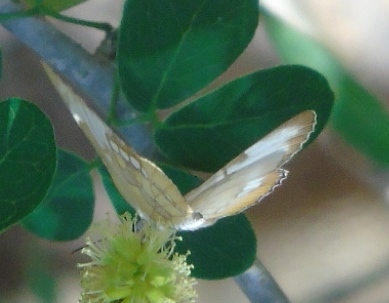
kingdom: Animalia
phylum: Arthropoda
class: Insecta
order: Lepidoptera
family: Nymphalidae
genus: Mestra
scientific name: Mestra amymone
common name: Common mestra
